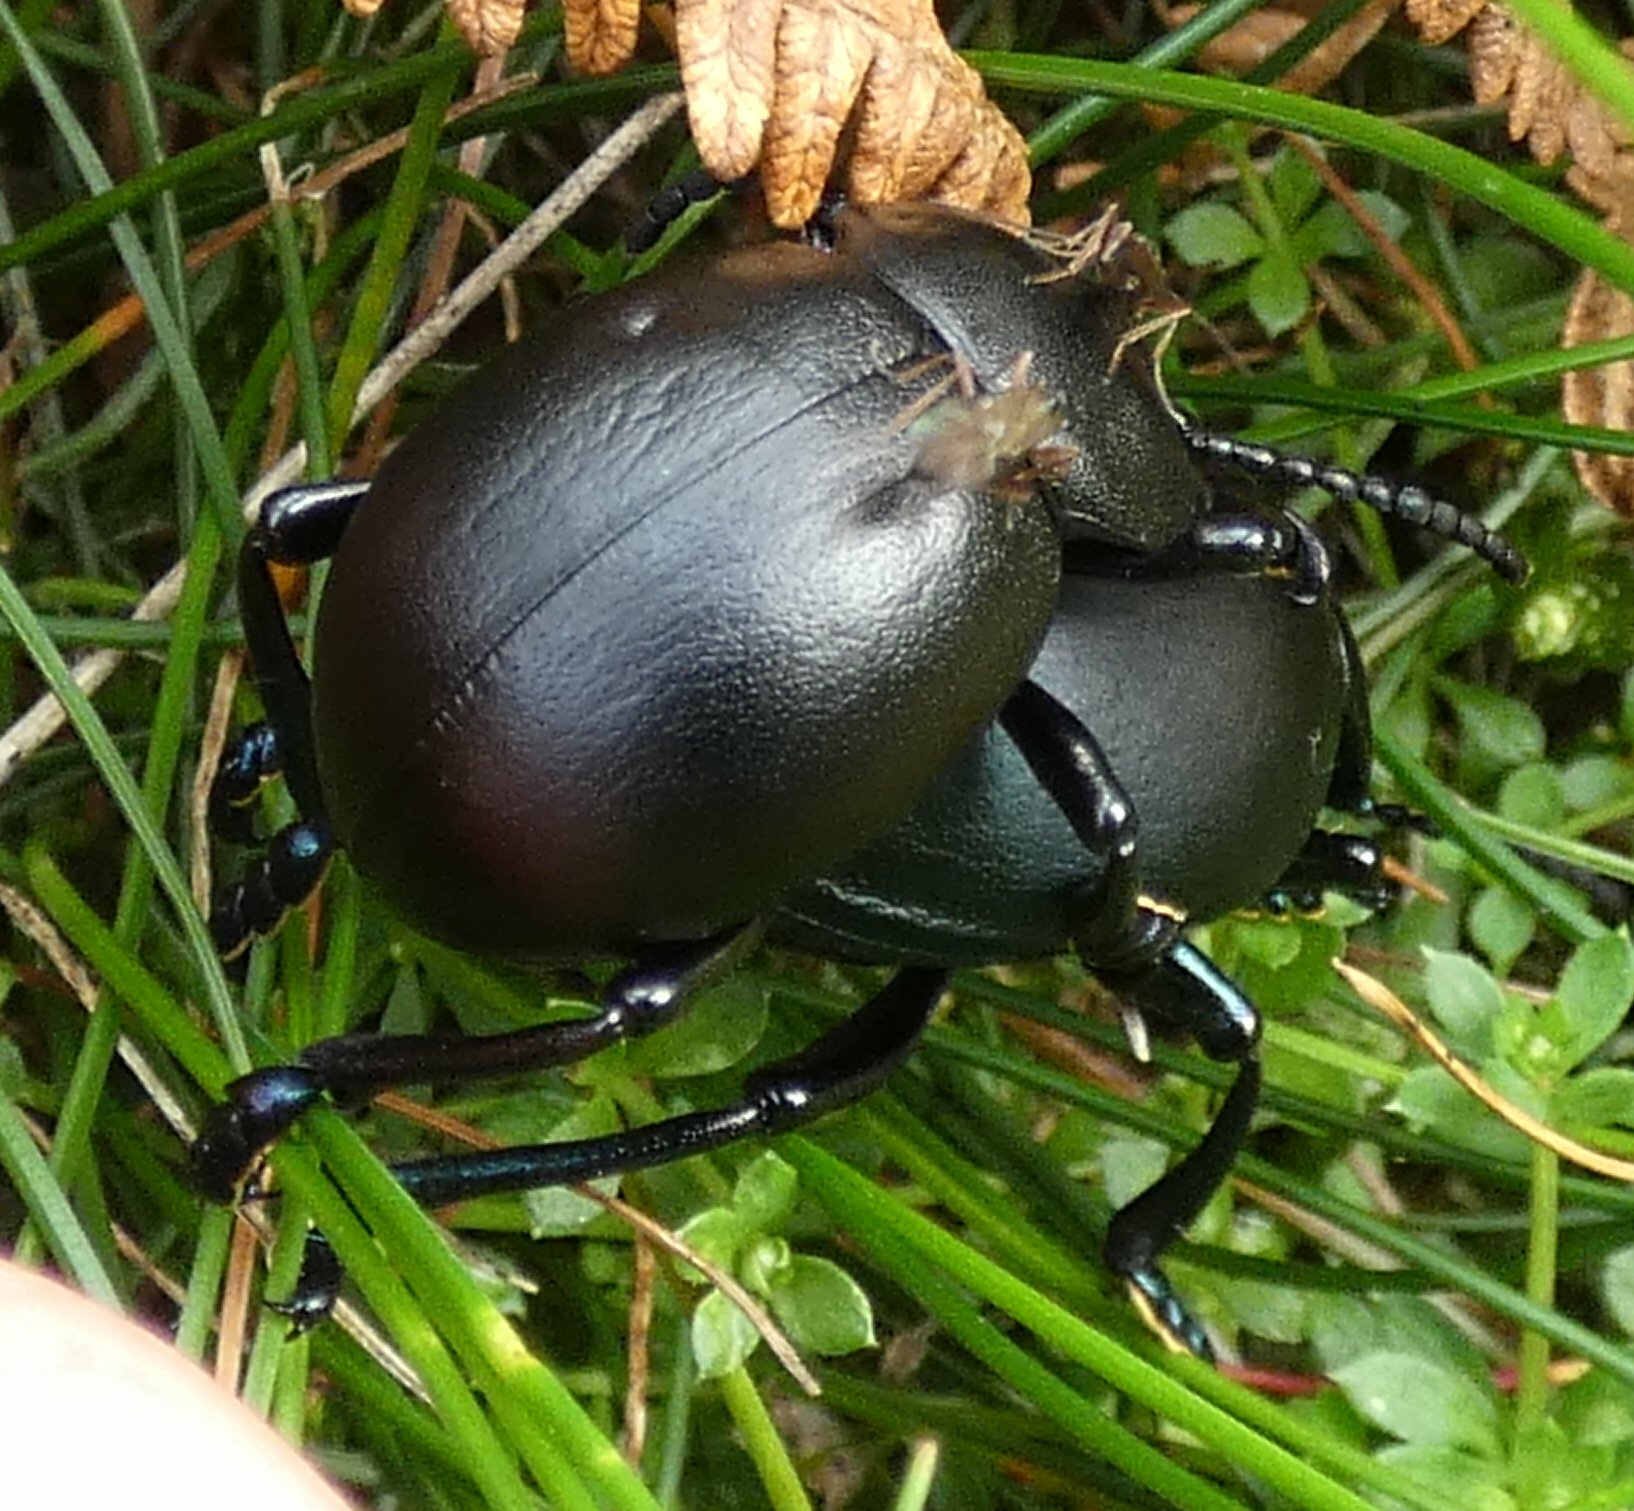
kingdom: Animalia
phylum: Arthropoda
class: Insecta
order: Coleoptera
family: Chrysomelidae
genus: Timarcha
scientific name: Timarcha tenebricosa
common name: Bloody-nosed beetle
